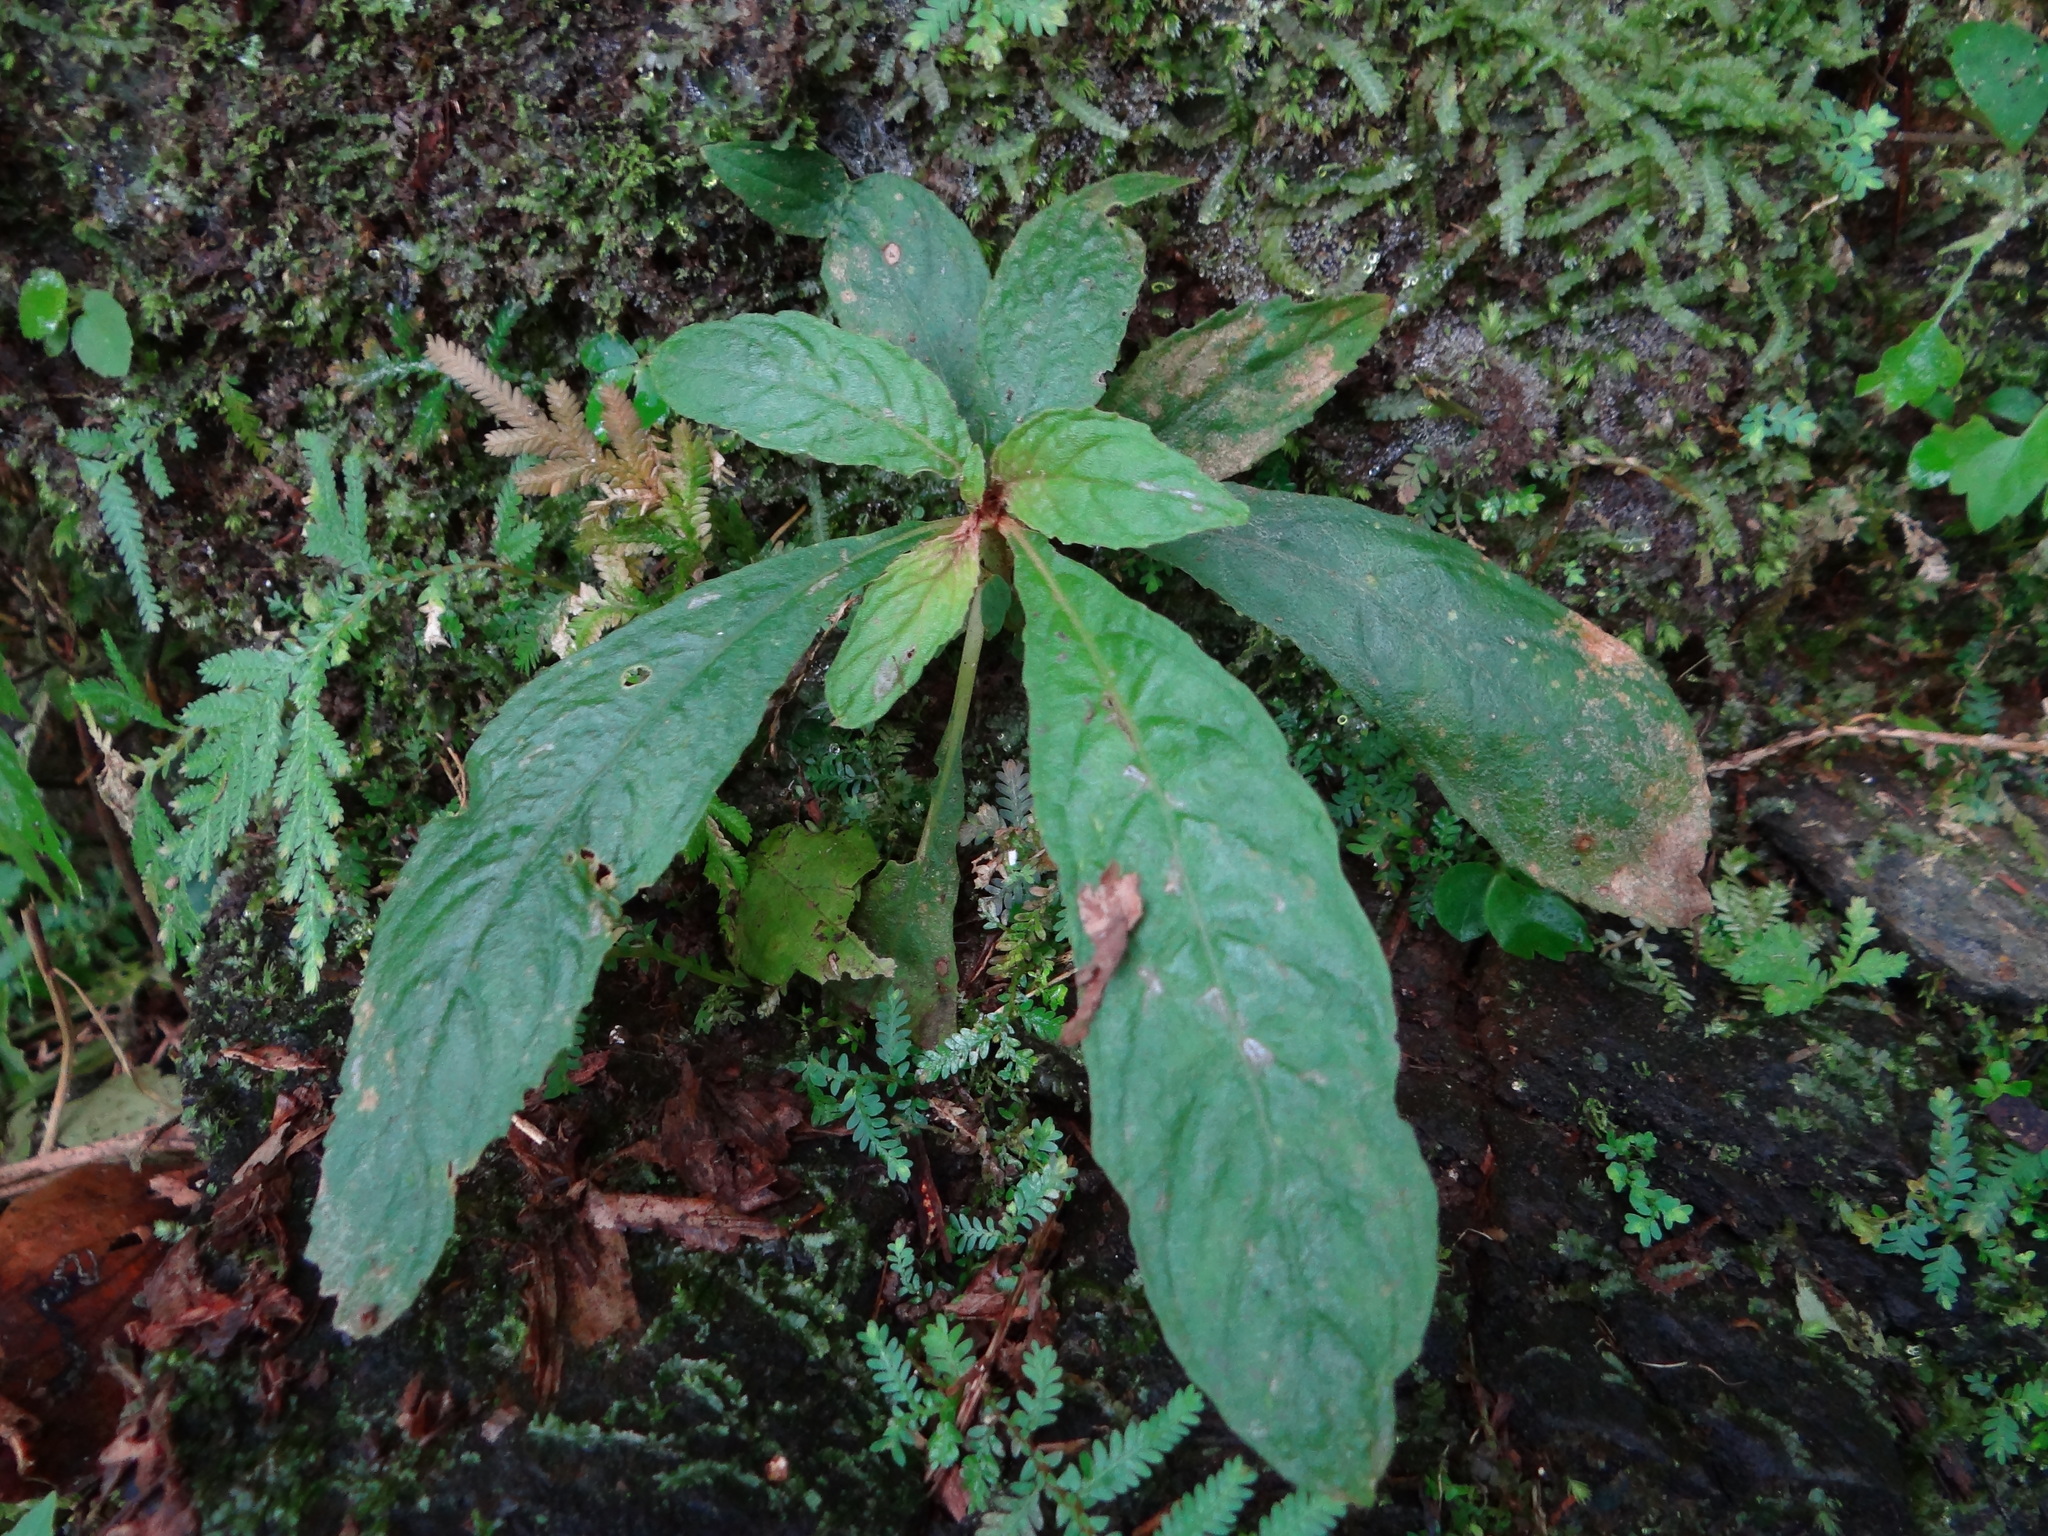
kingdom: Plantae
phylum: Tracheophyta
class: Magnoliopsida
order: Lamiales
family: Gesneriaceae
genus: Rhynchotechum
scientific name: Rhynchotechum discolor
